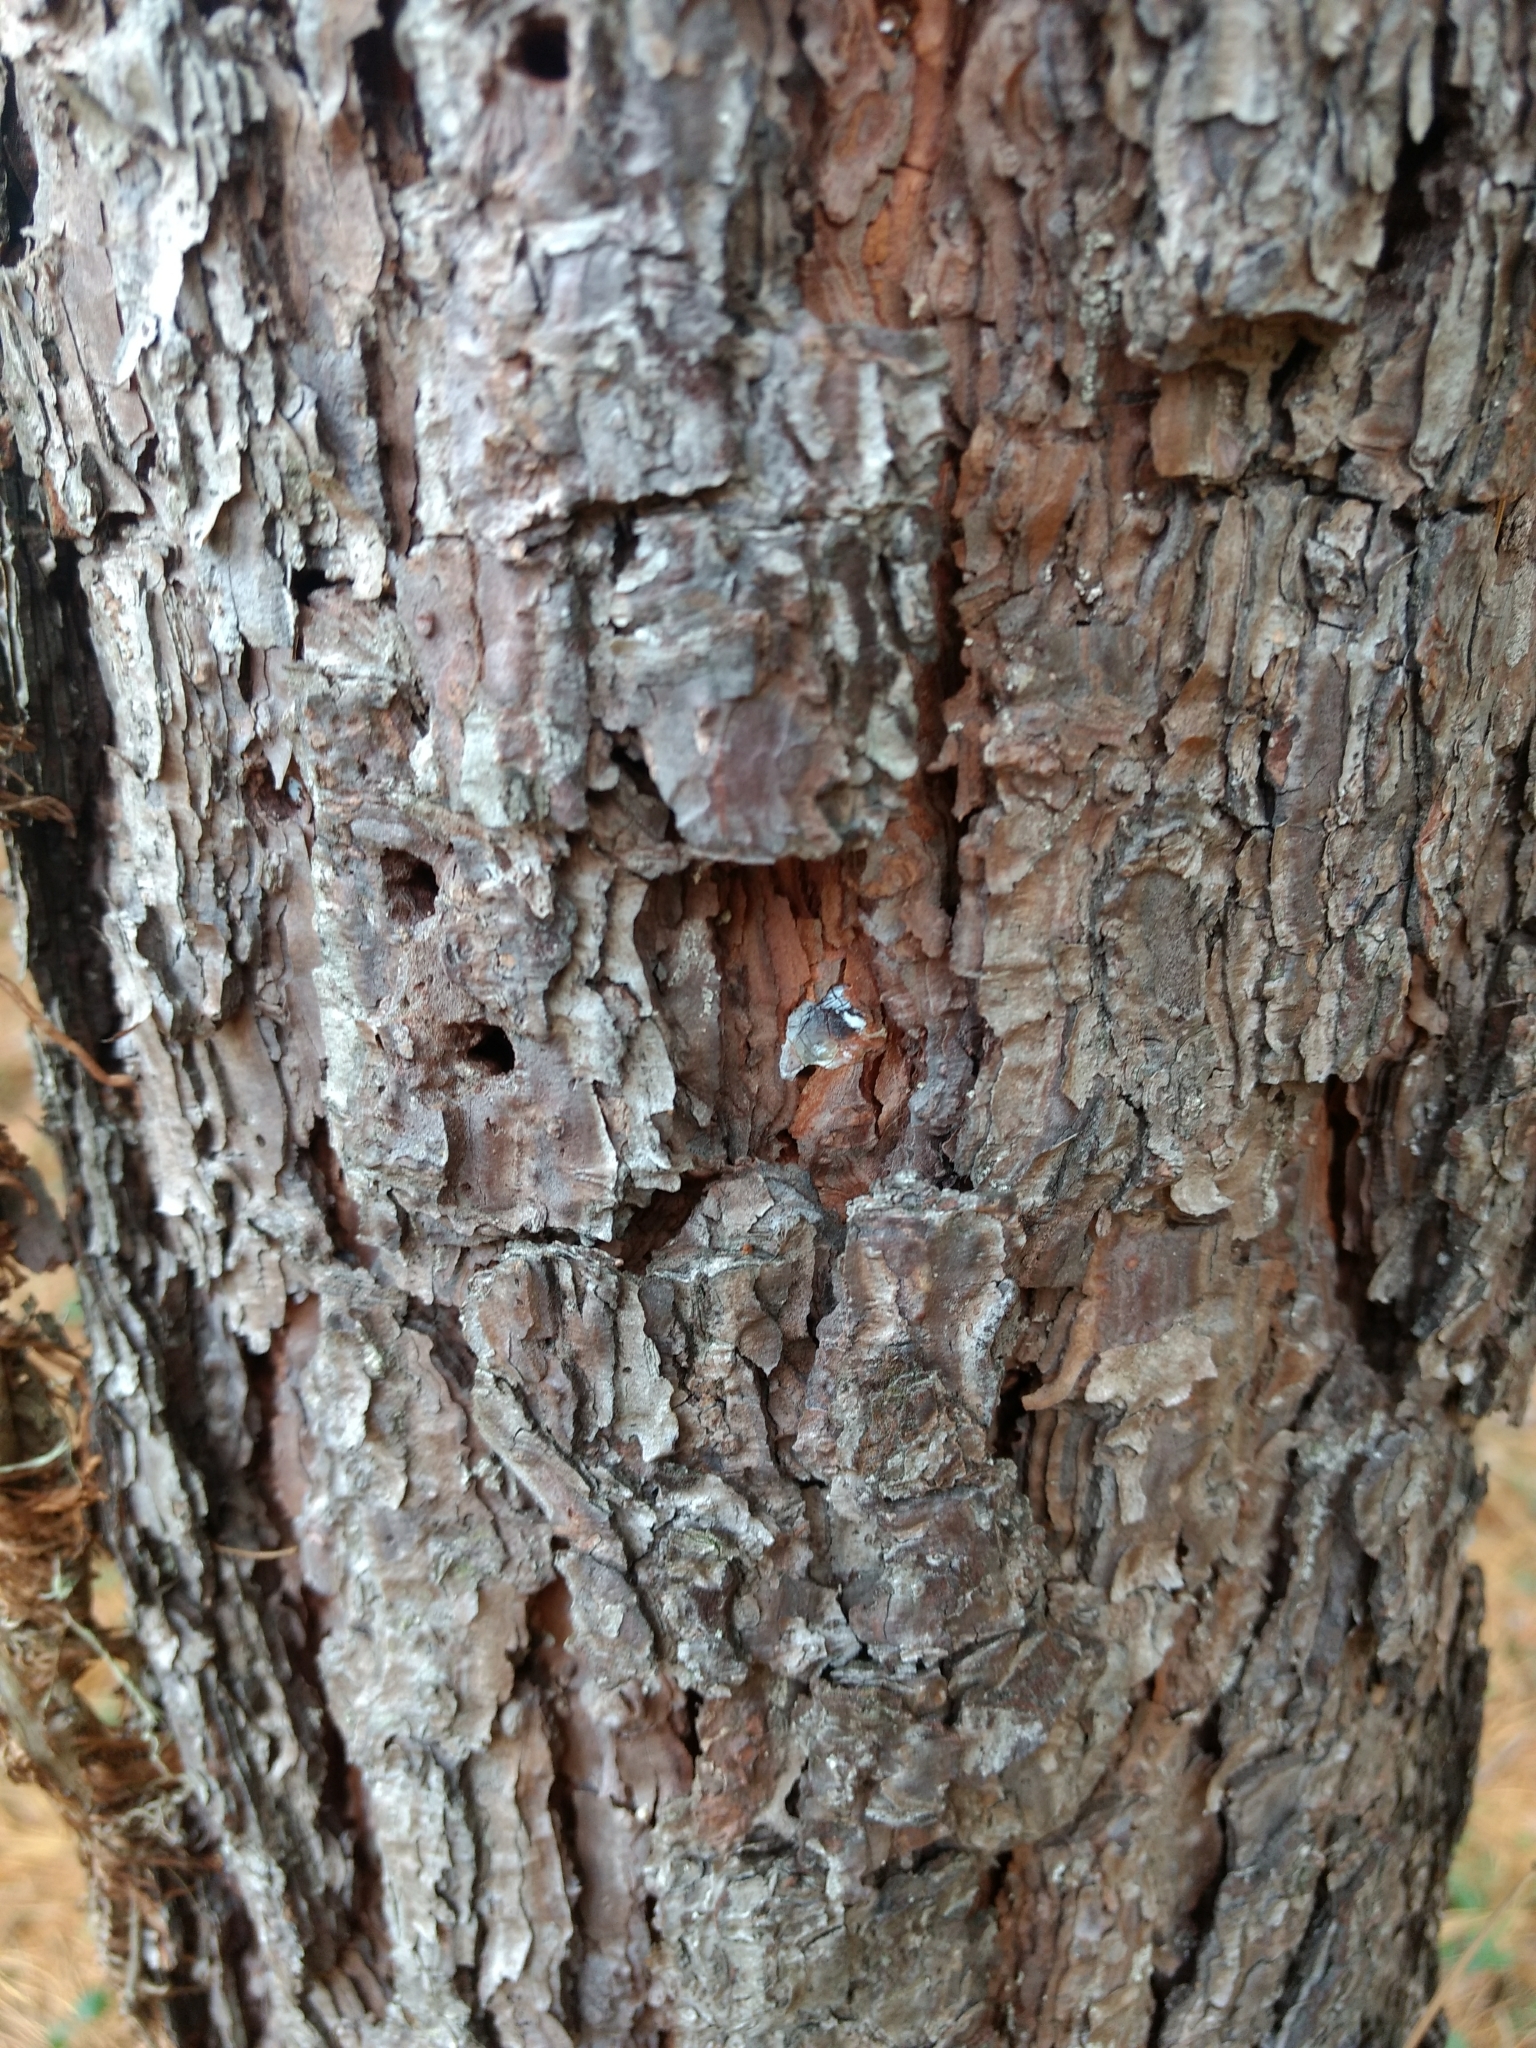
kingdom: Plantae
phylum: Tracheophyta
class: Pinopsida
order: Pinales
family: Pinaceae
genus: Pinus
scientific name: Pinus rigida
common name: Pitch pine
